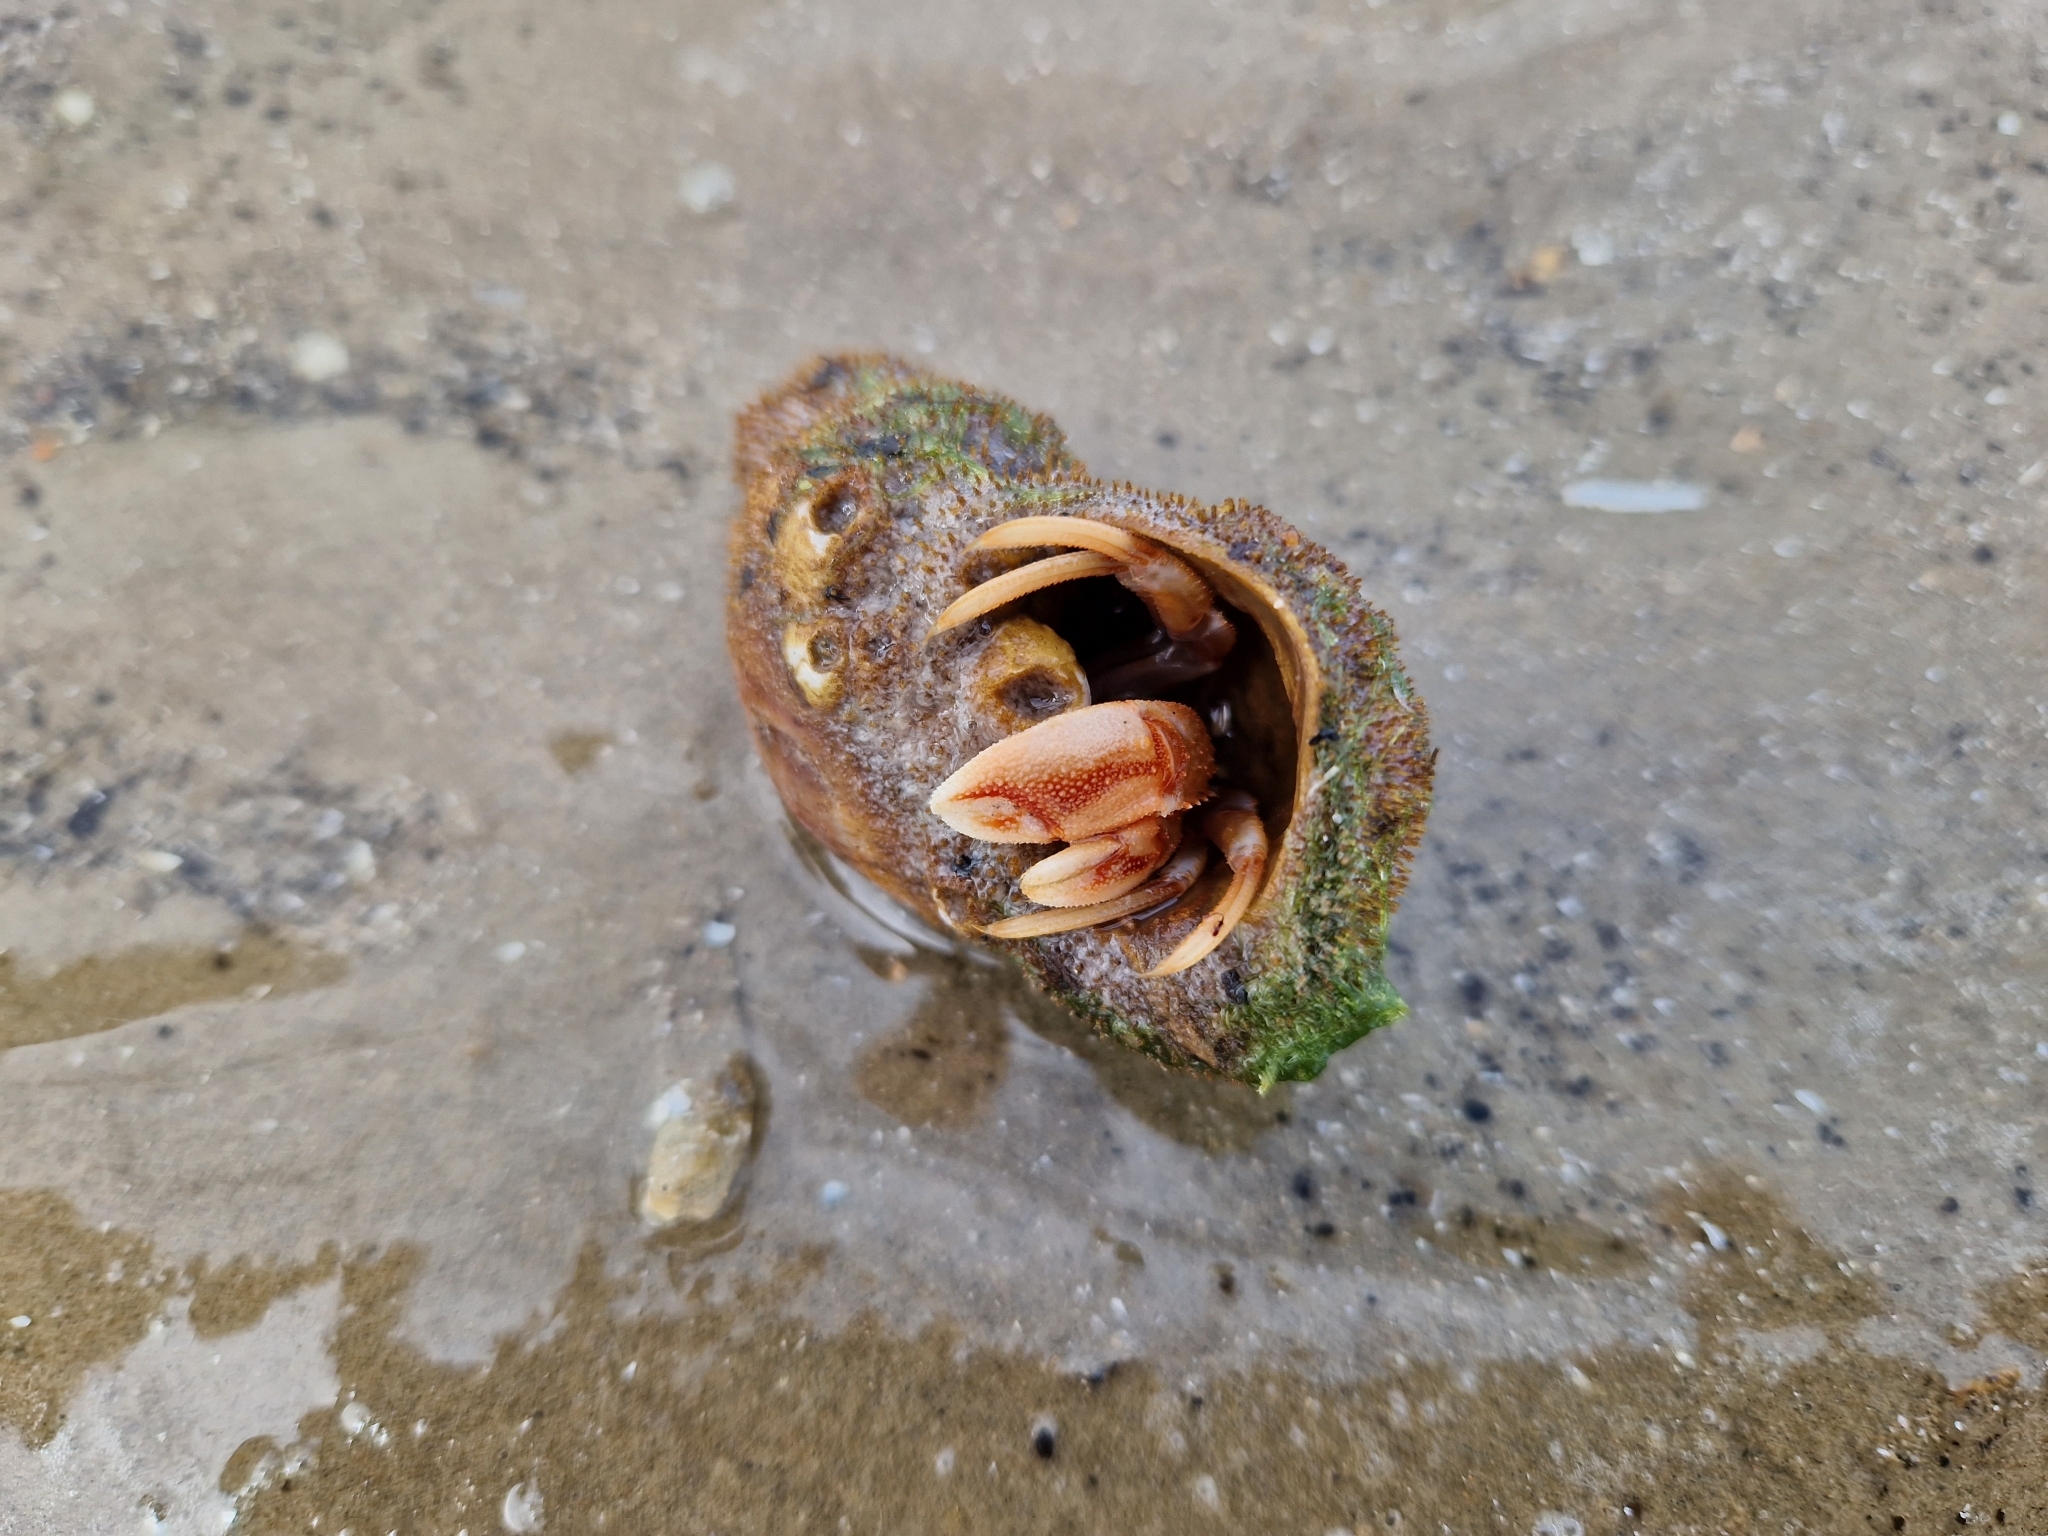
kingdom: Animalia
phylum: Arthropoda
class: Malacostraca
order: Decapoda
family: Paguridae
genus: Pagurus
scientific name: Pagurus bernhardus
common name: Hermit crab
